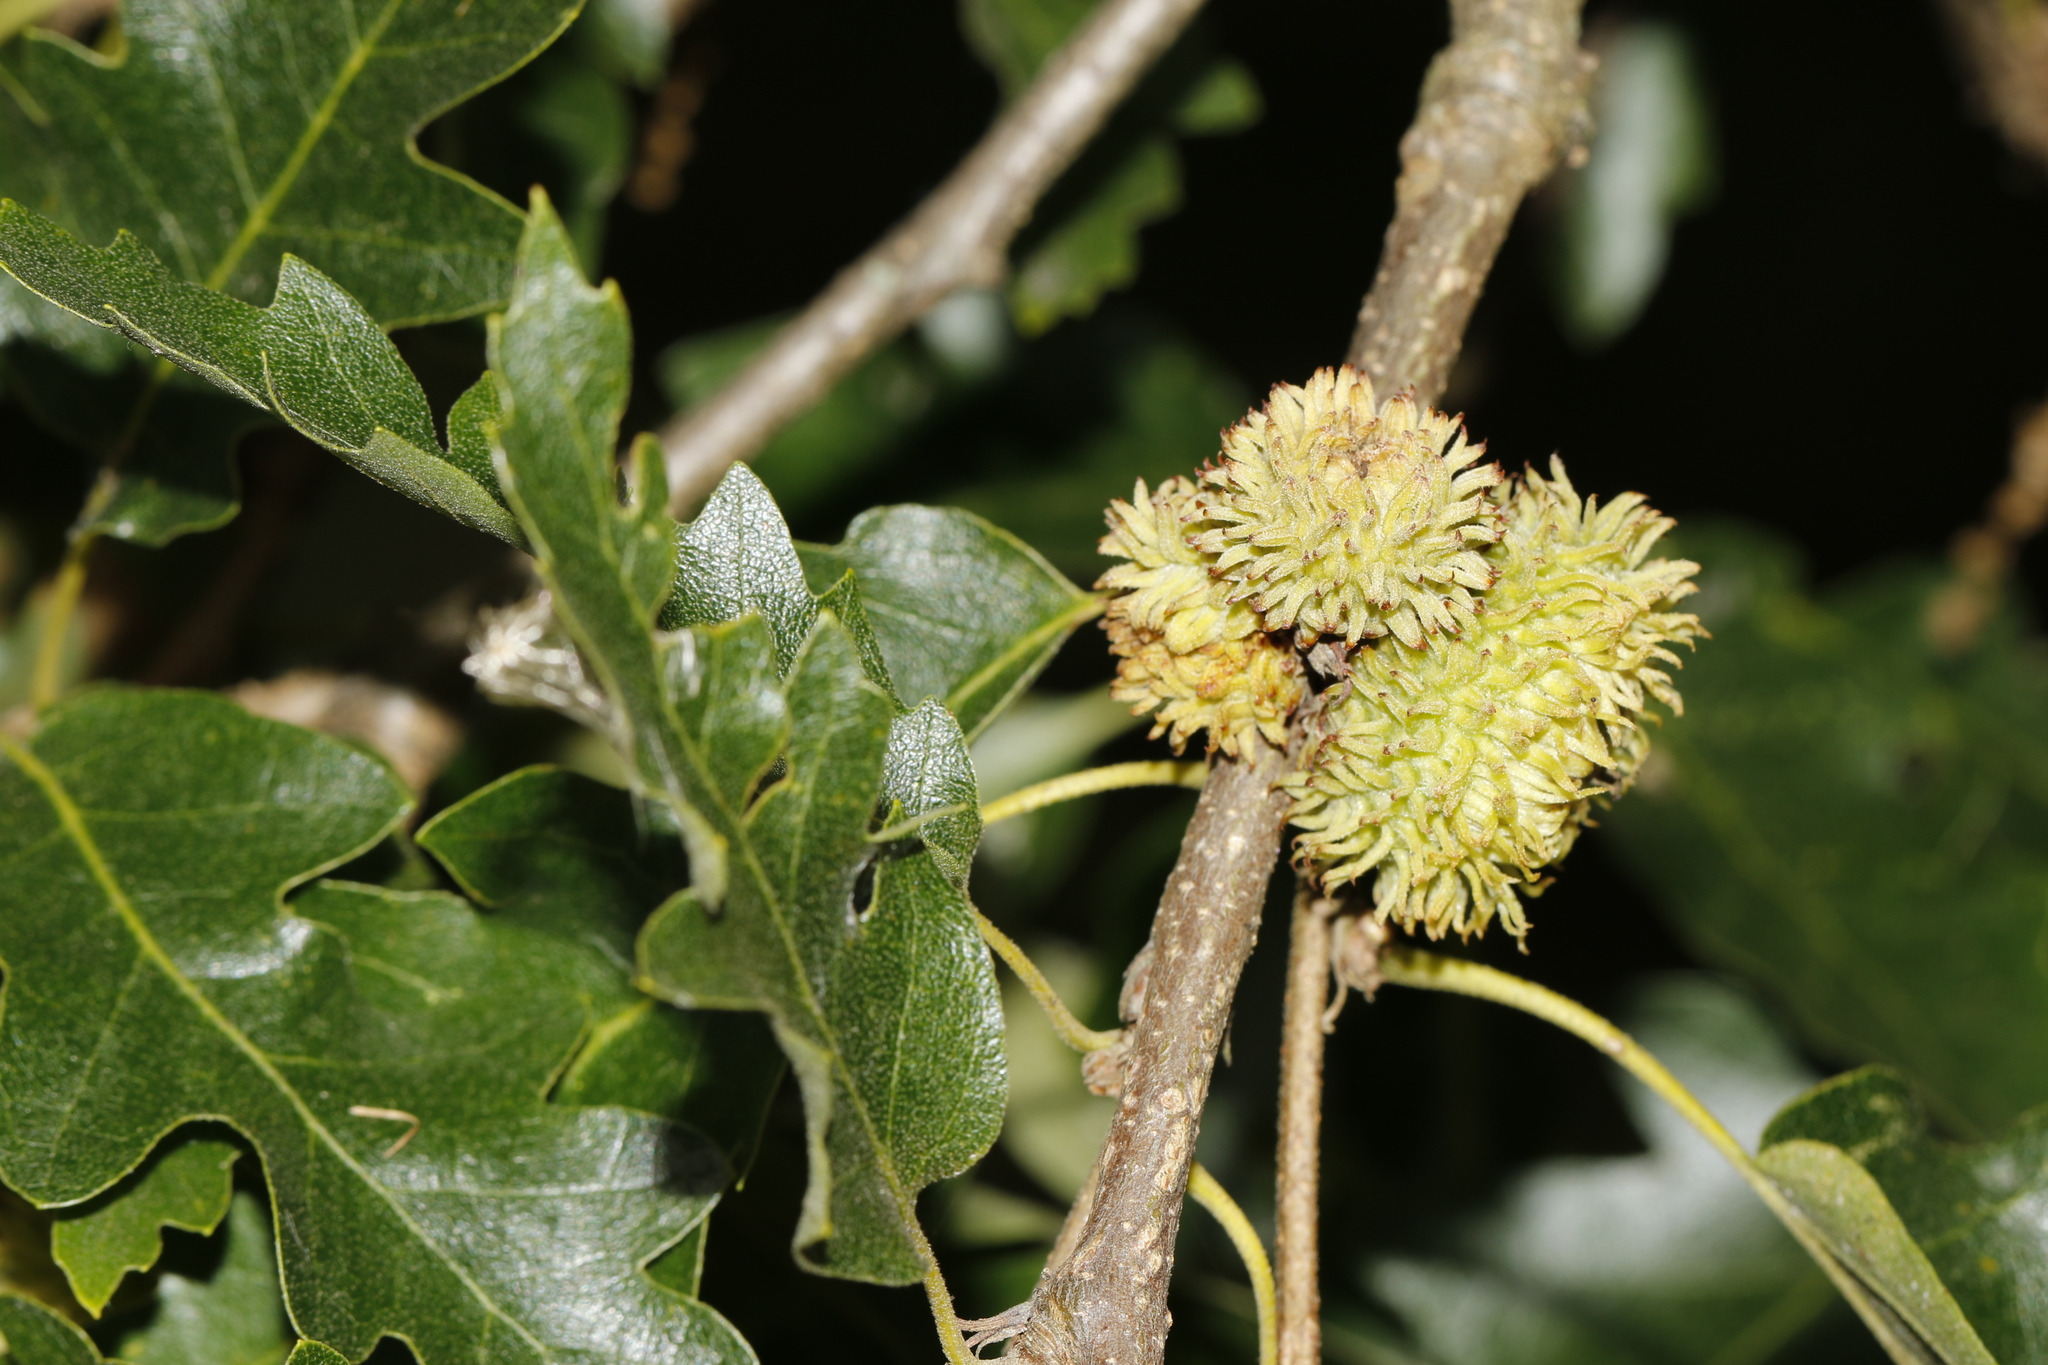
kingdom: Plantae
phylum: Tracheophyta
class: Magnoliopsida
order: Fagales
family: Fagaceae
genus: Quercus
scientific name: Quercus cerris
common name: Turkey oak
